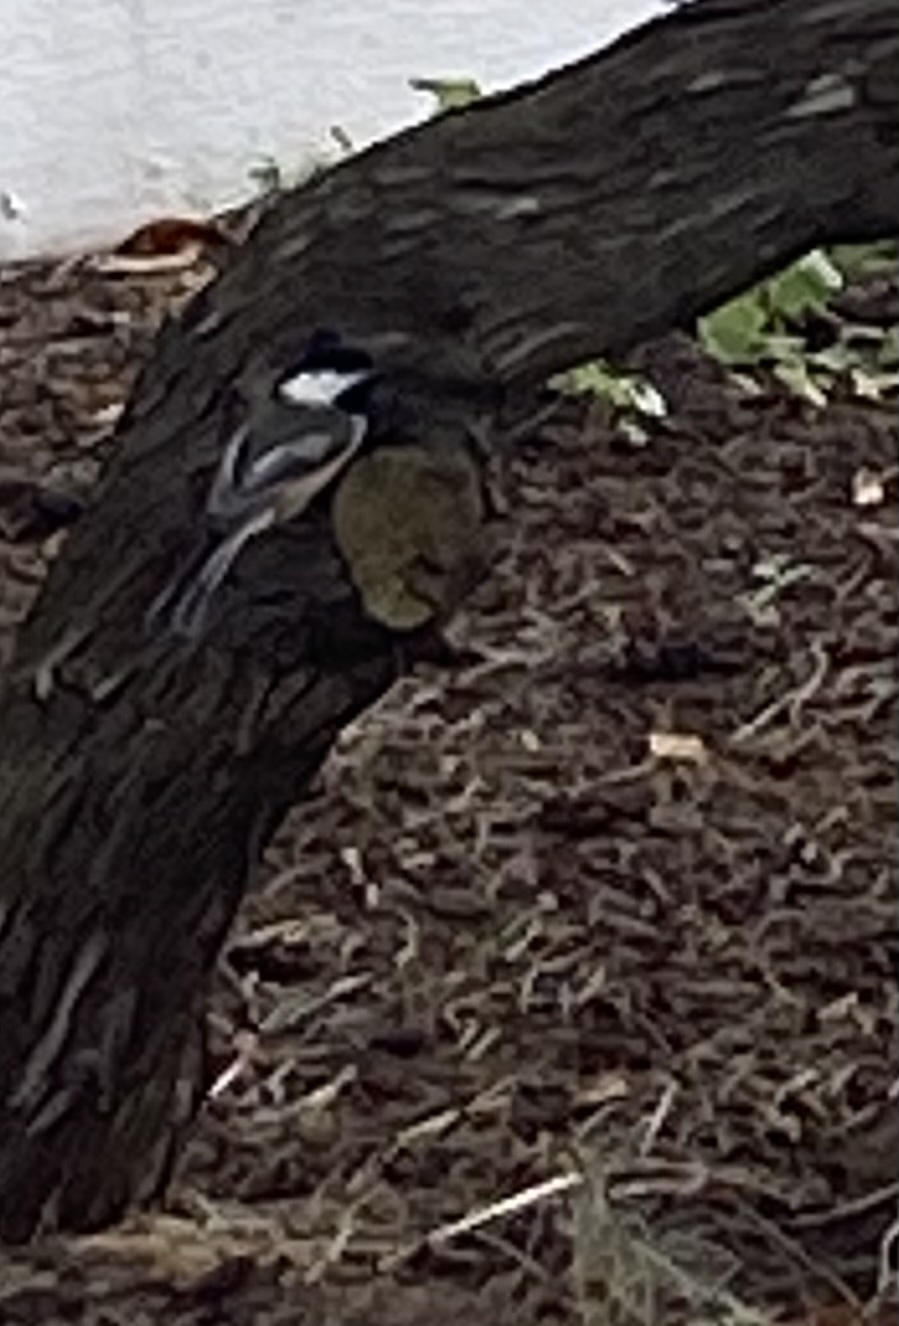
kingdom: Animalia
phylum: Chordata
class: Aves
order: Passeriformes
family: Paridae
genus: Poecile
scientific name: Poecile atricapillus
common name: Black-capped chickadee
